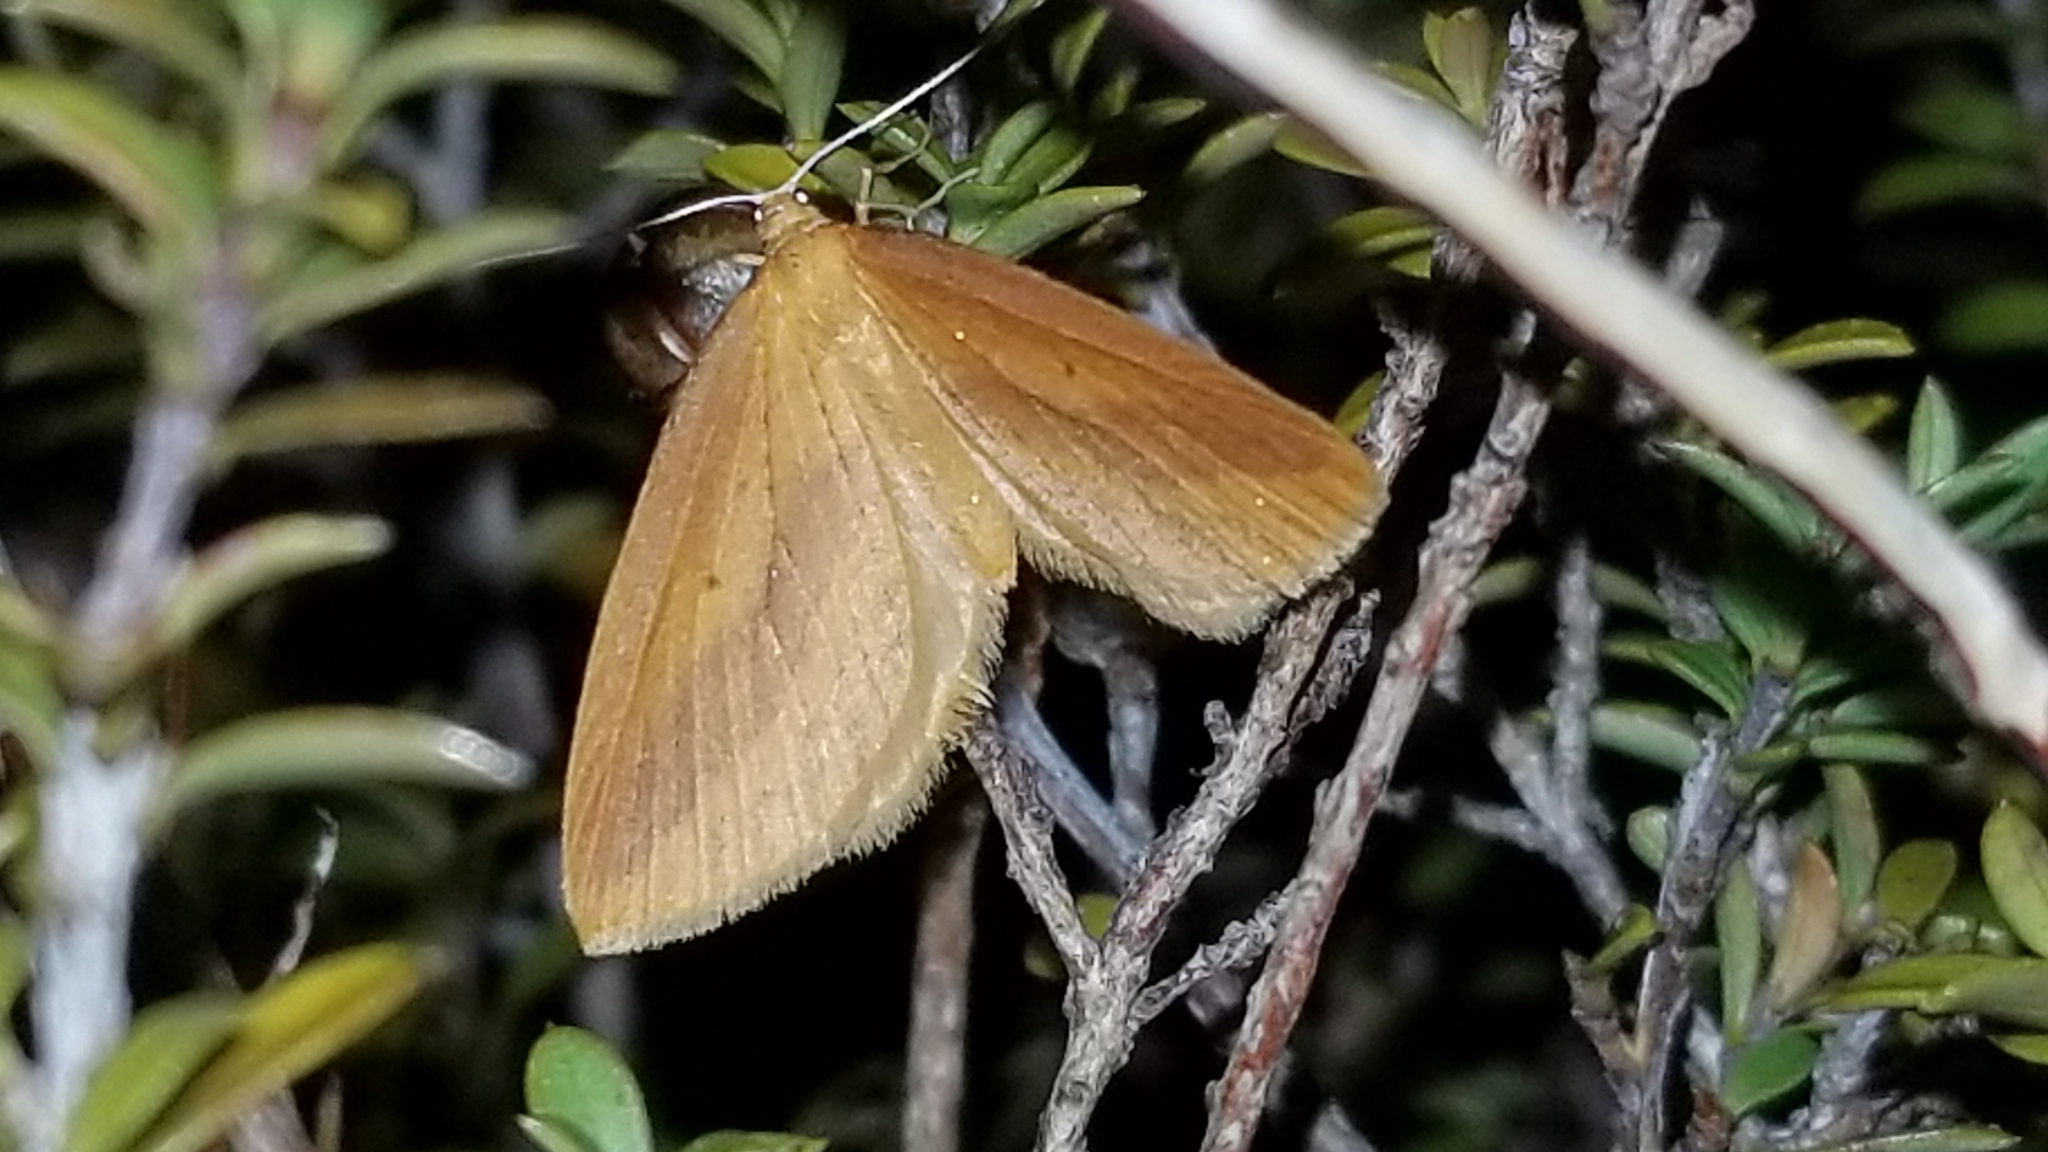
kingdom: Animalia
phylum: Arthropoda
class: Insecta
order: Lepidoptera
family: Geometridae
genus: Epiphryne
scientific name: Epiphryne charidema
